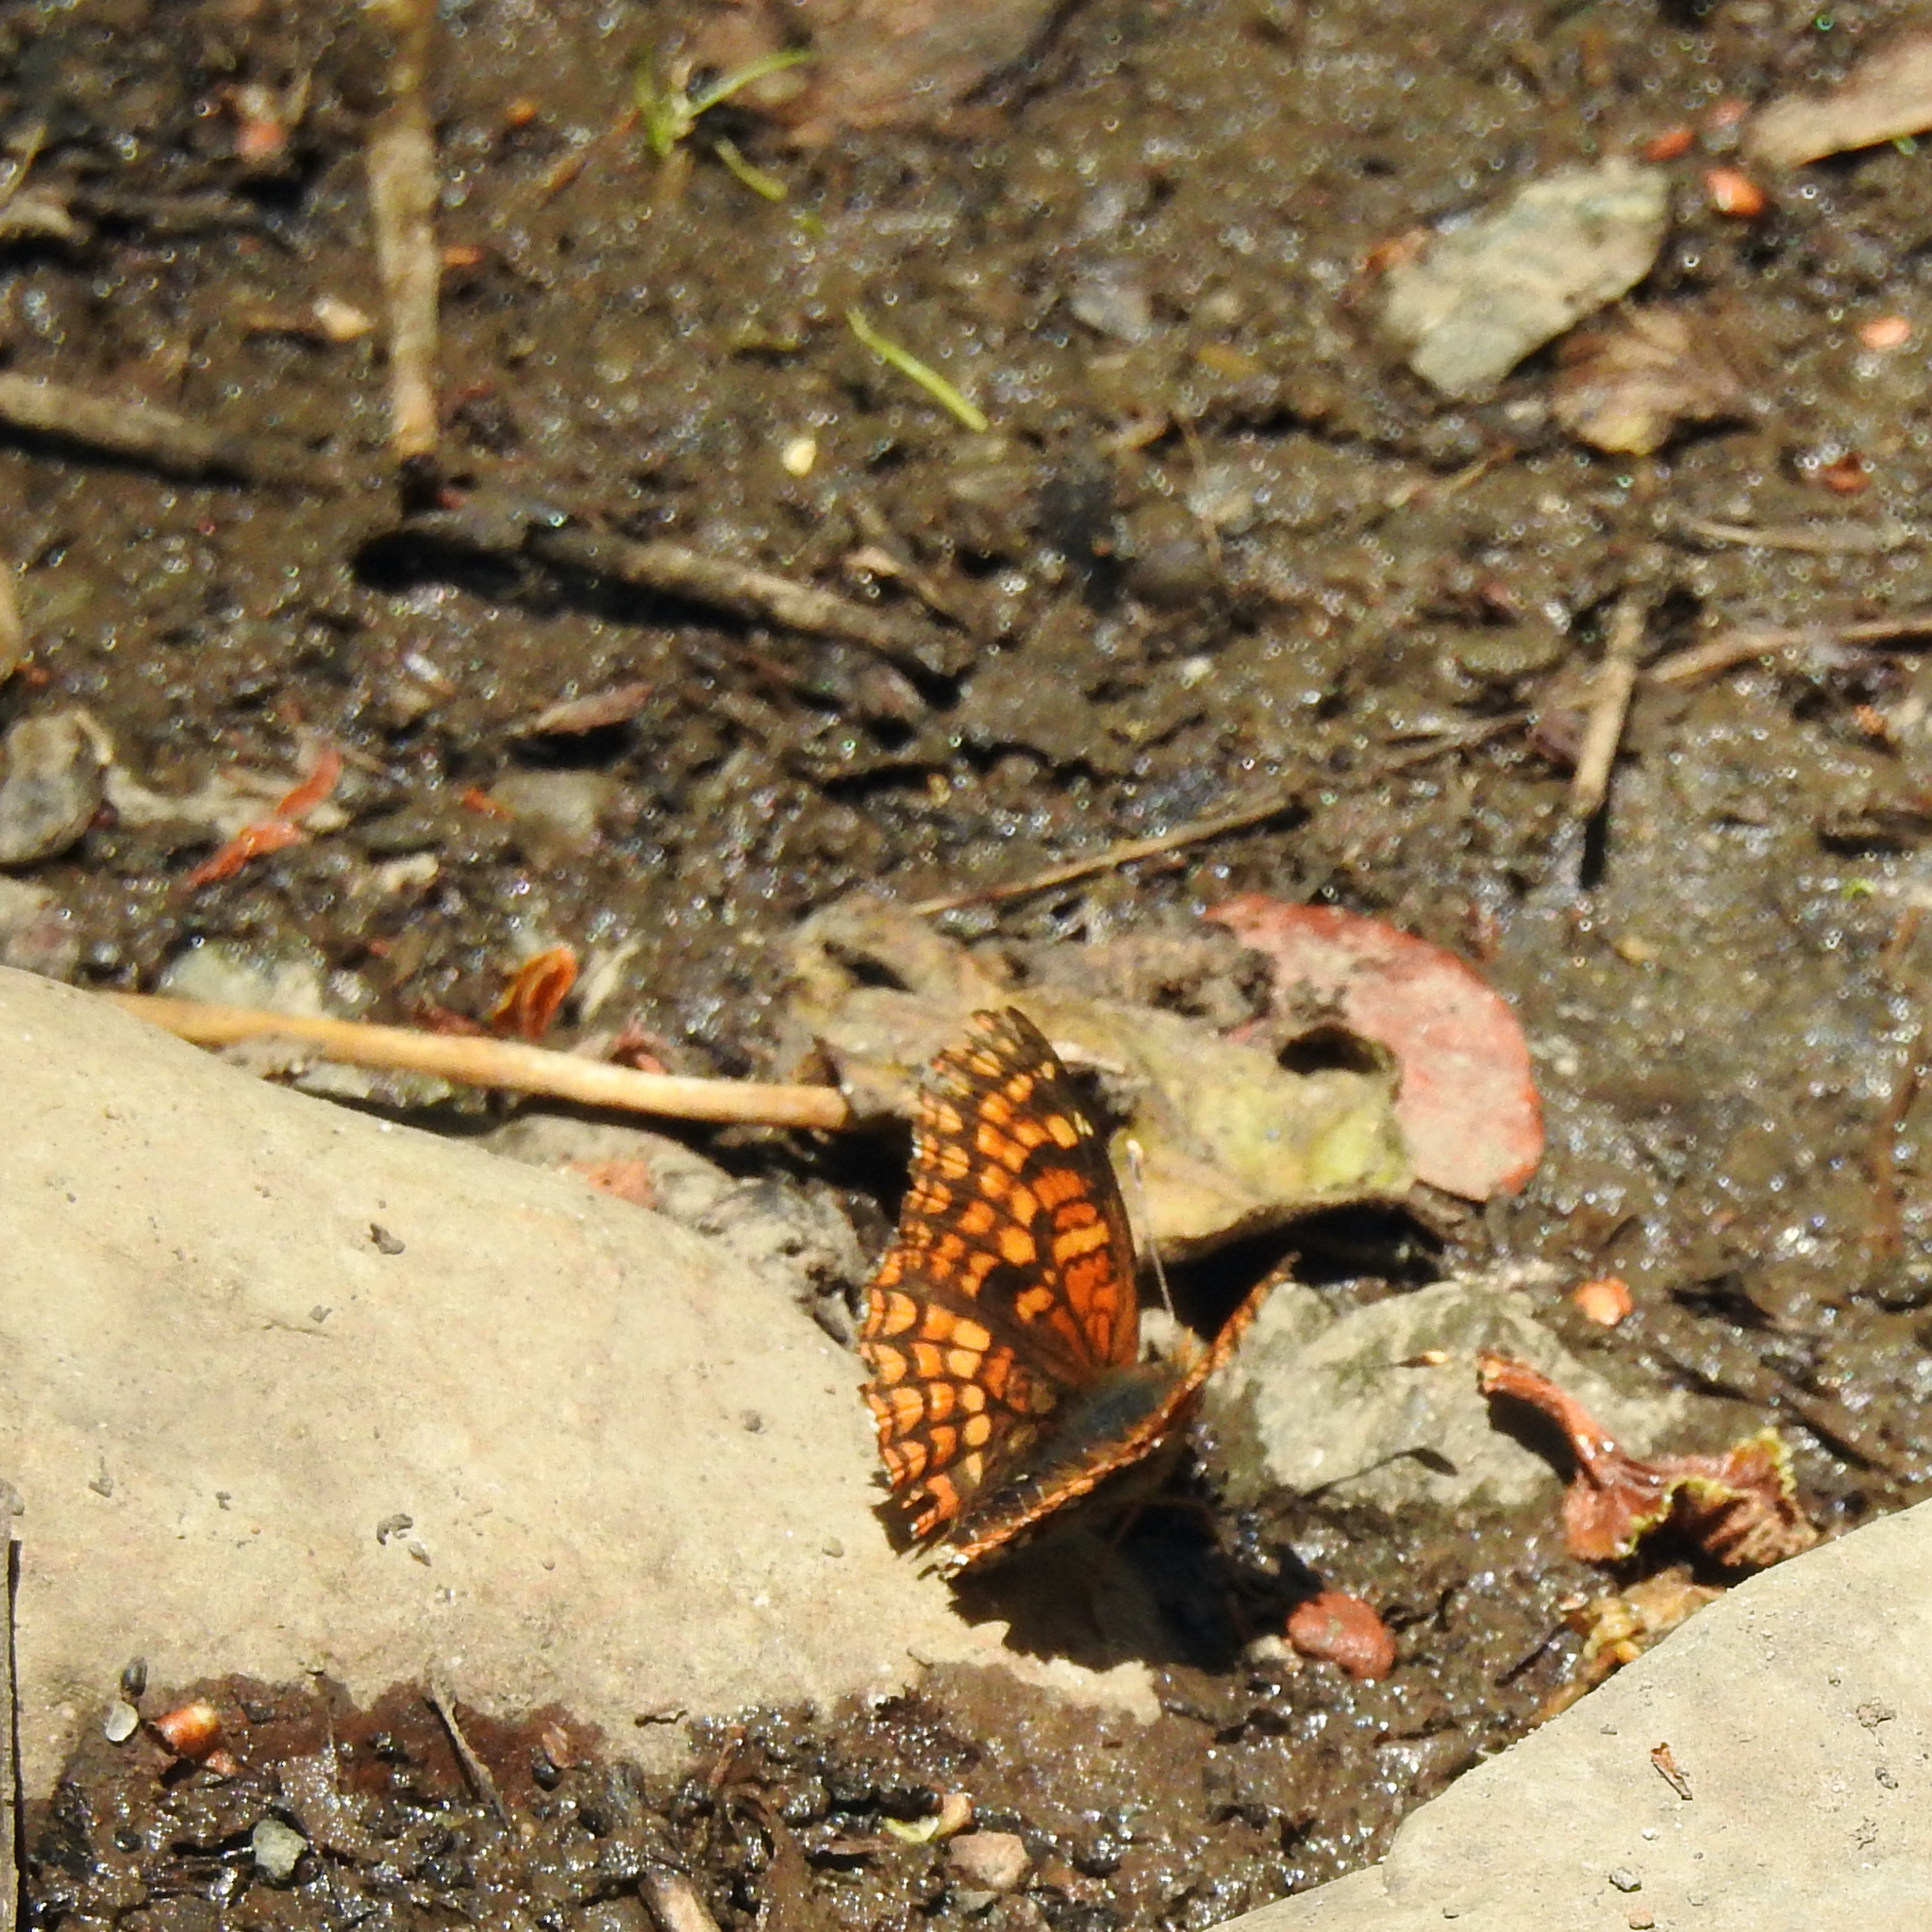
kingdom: Animalia
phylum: Arthropoda
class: Insecta
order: Lepidoptera
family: Nymphalidae
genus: Chlosyne
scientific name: Chlosyne palla
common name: Northern checkerspot
